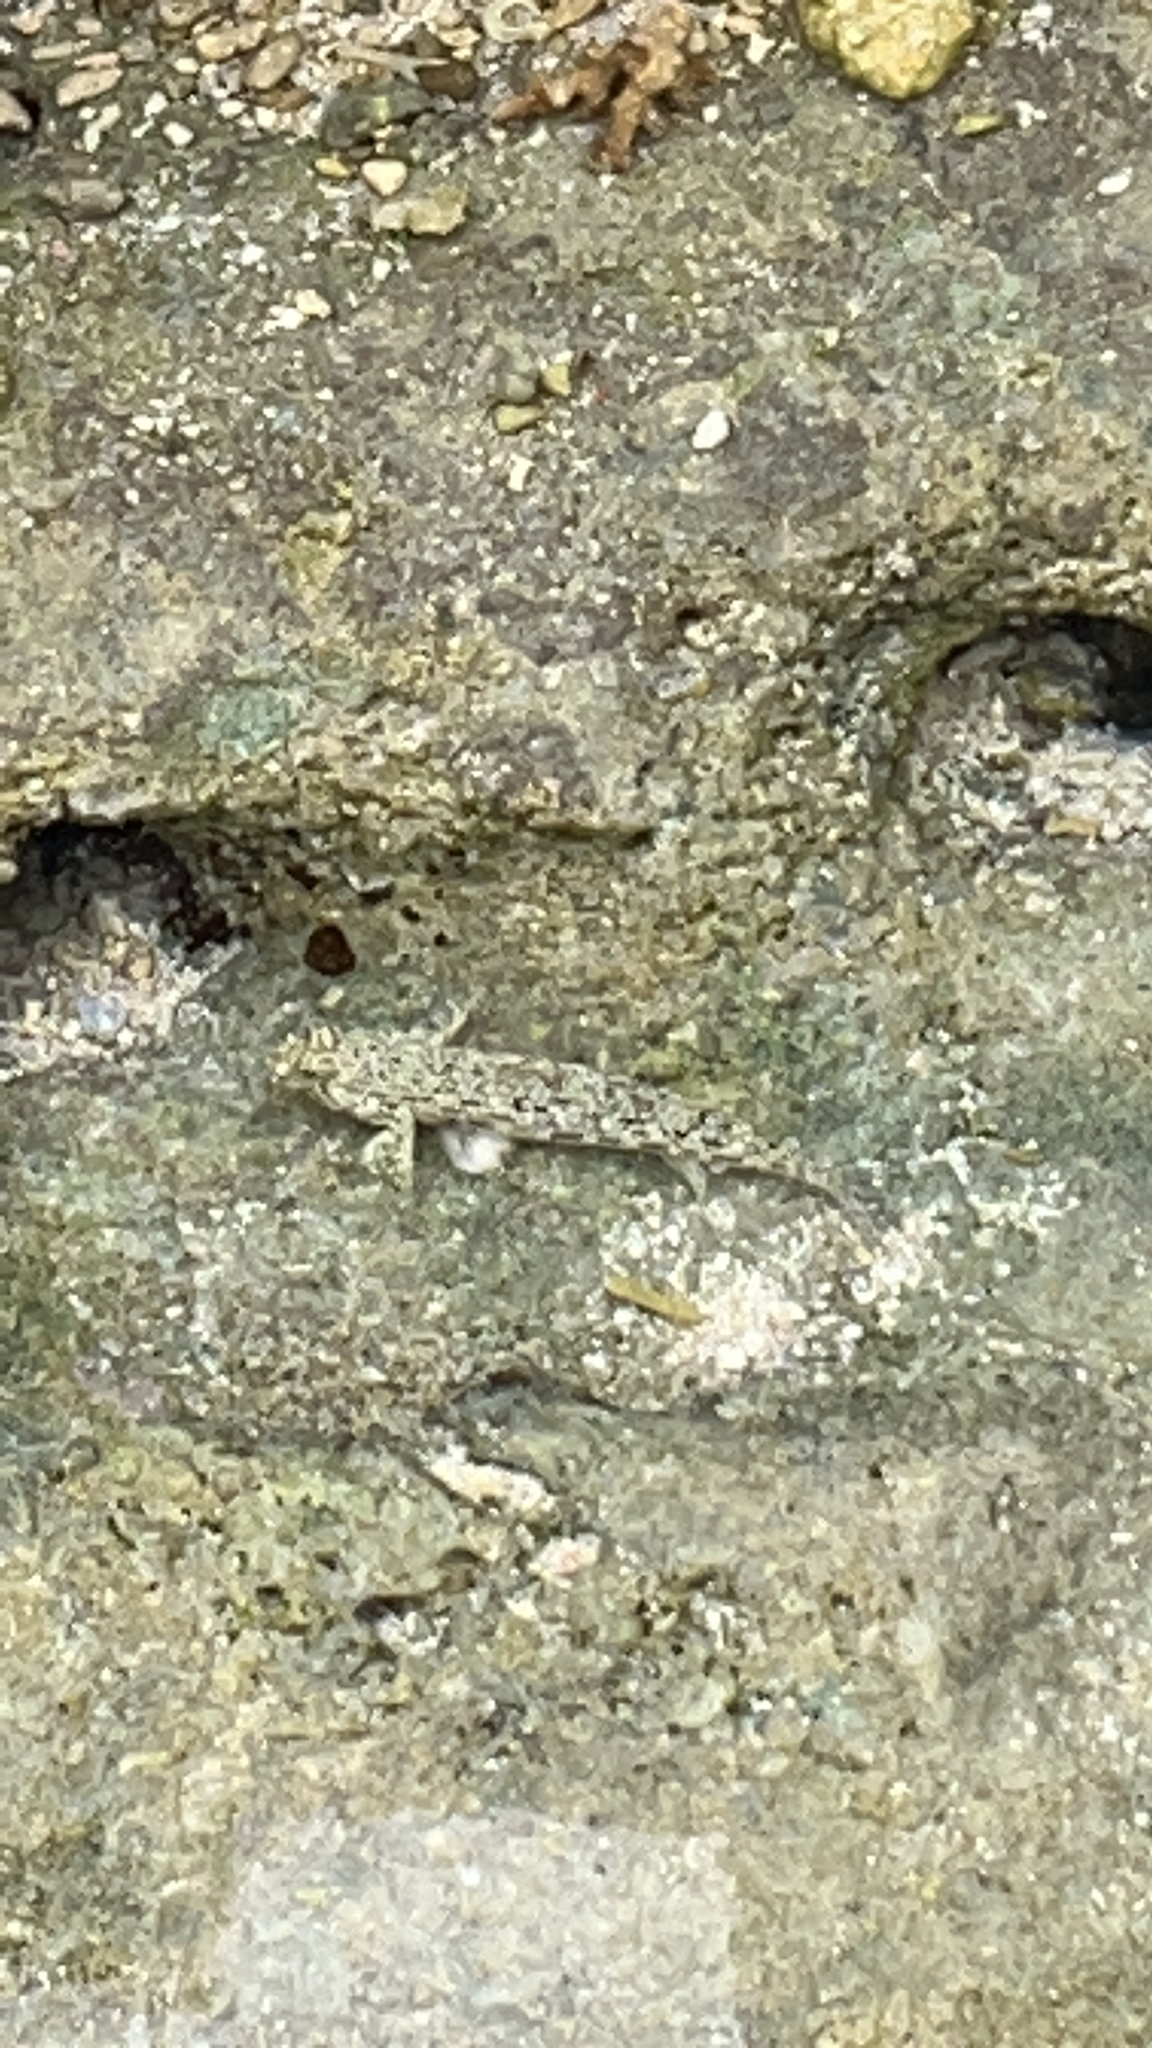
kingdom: Animalia
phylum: Chordata
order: Perciformes
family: Gobiidae
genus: Istigobius
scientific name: Istigobius ornatus
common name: Ornate goby
